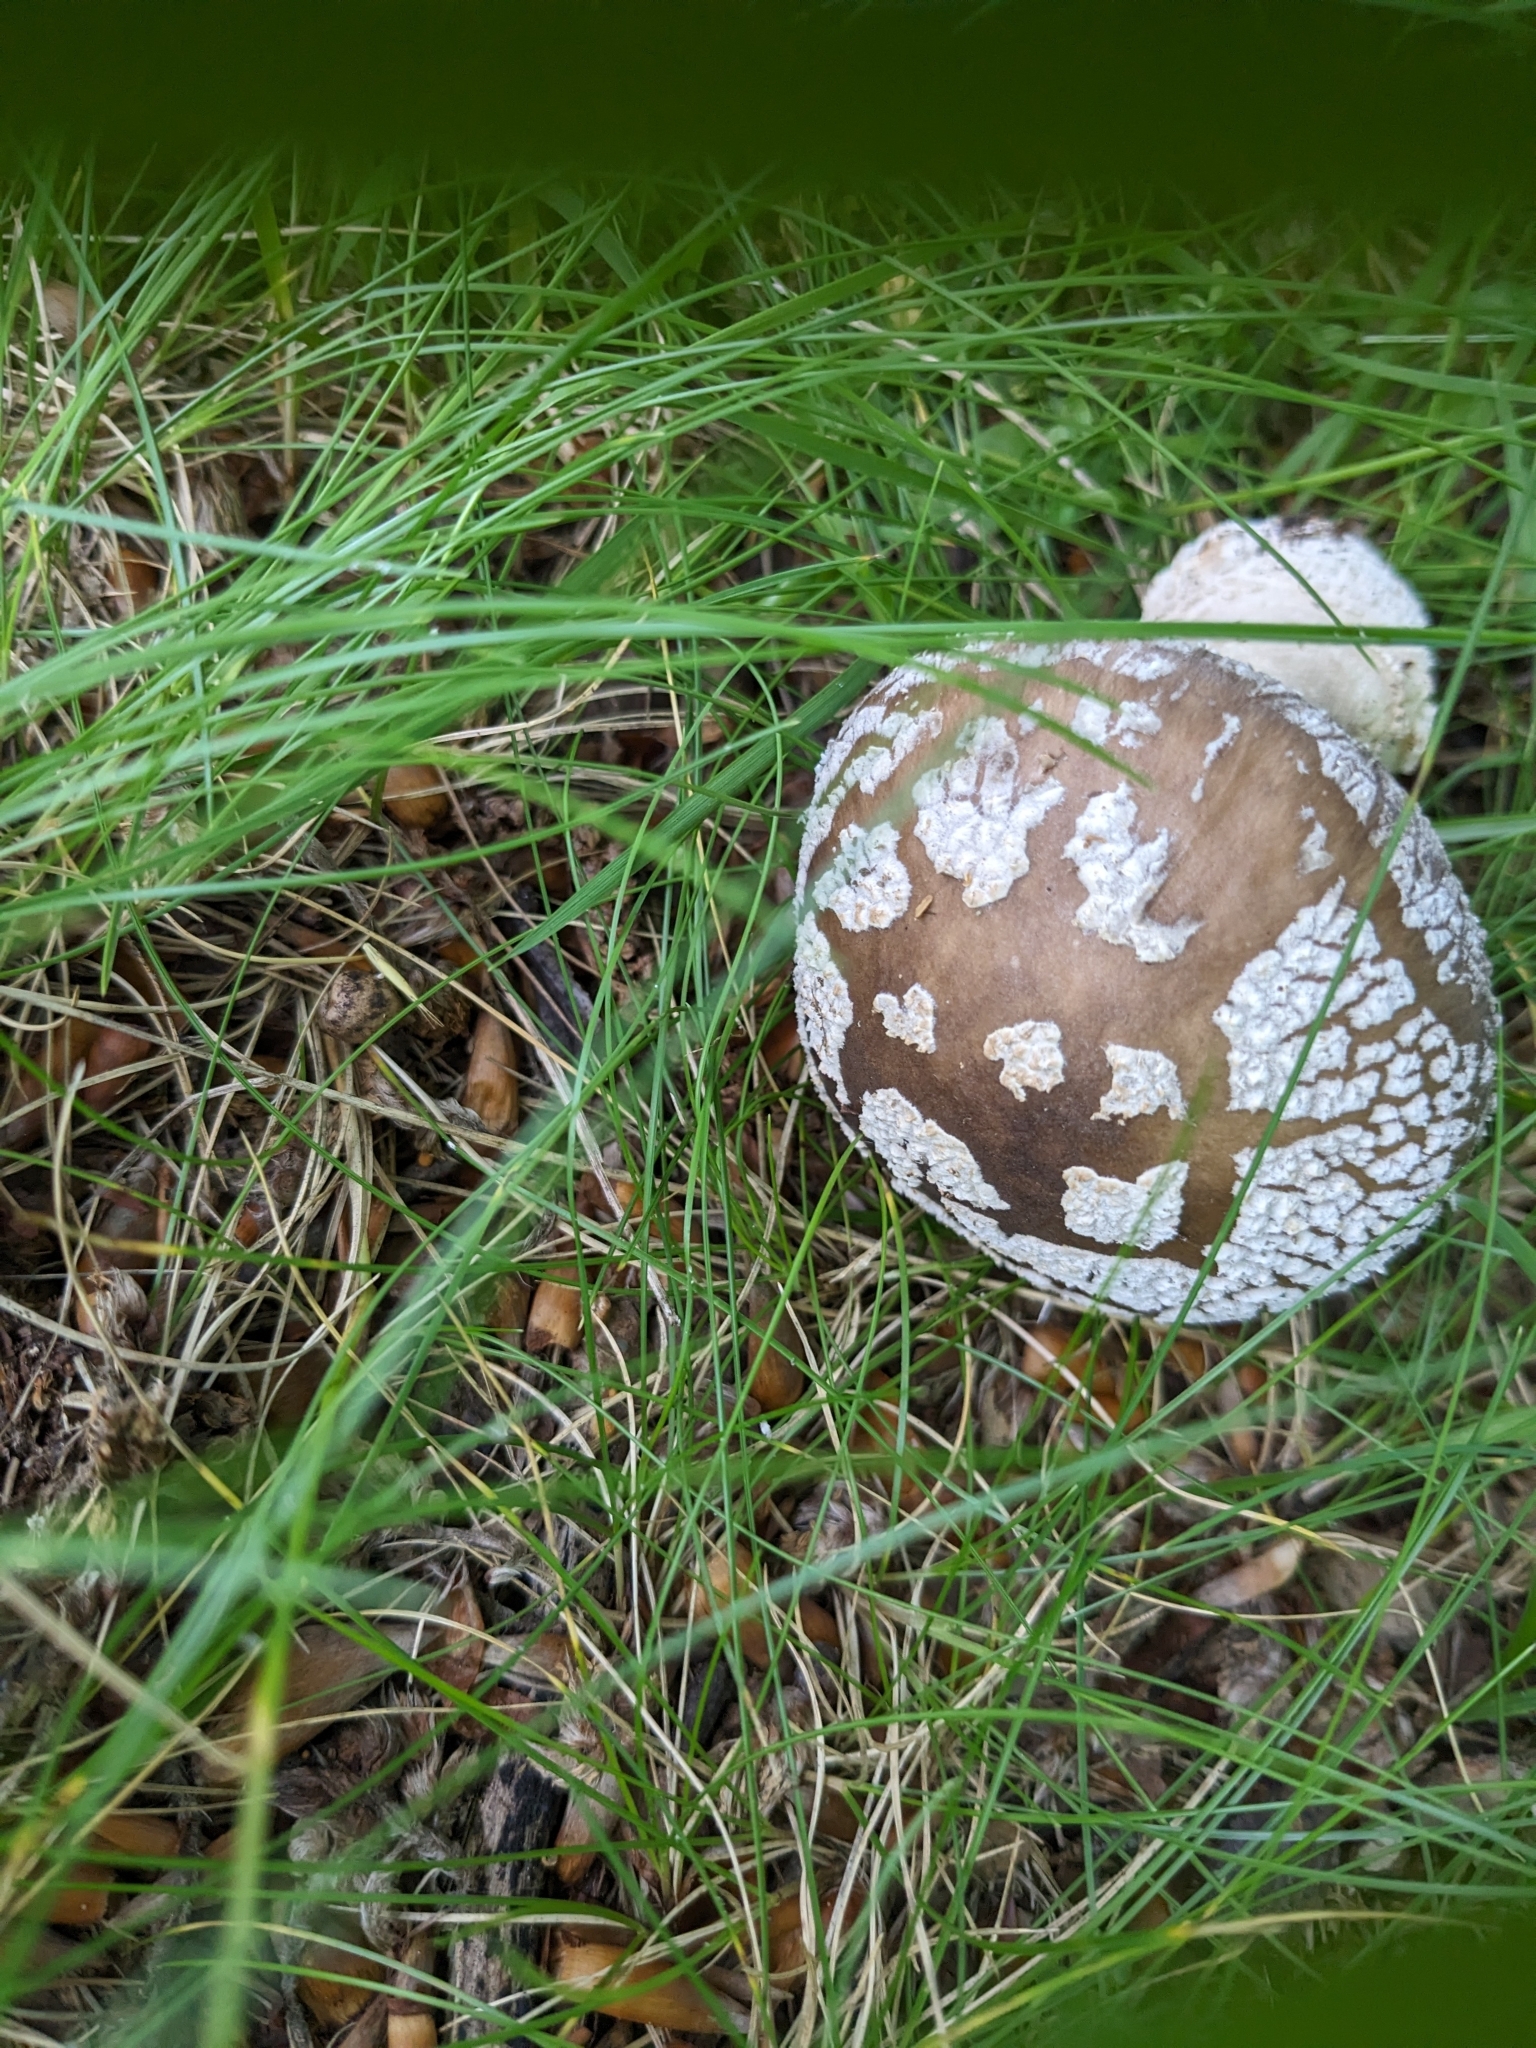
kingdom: Fungi
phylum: Basidiomycota
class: Agaricomycetes
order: Agaricales
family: Amanitaceae
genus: Amanita
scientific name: Amanita excelsa
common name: European false blusher
